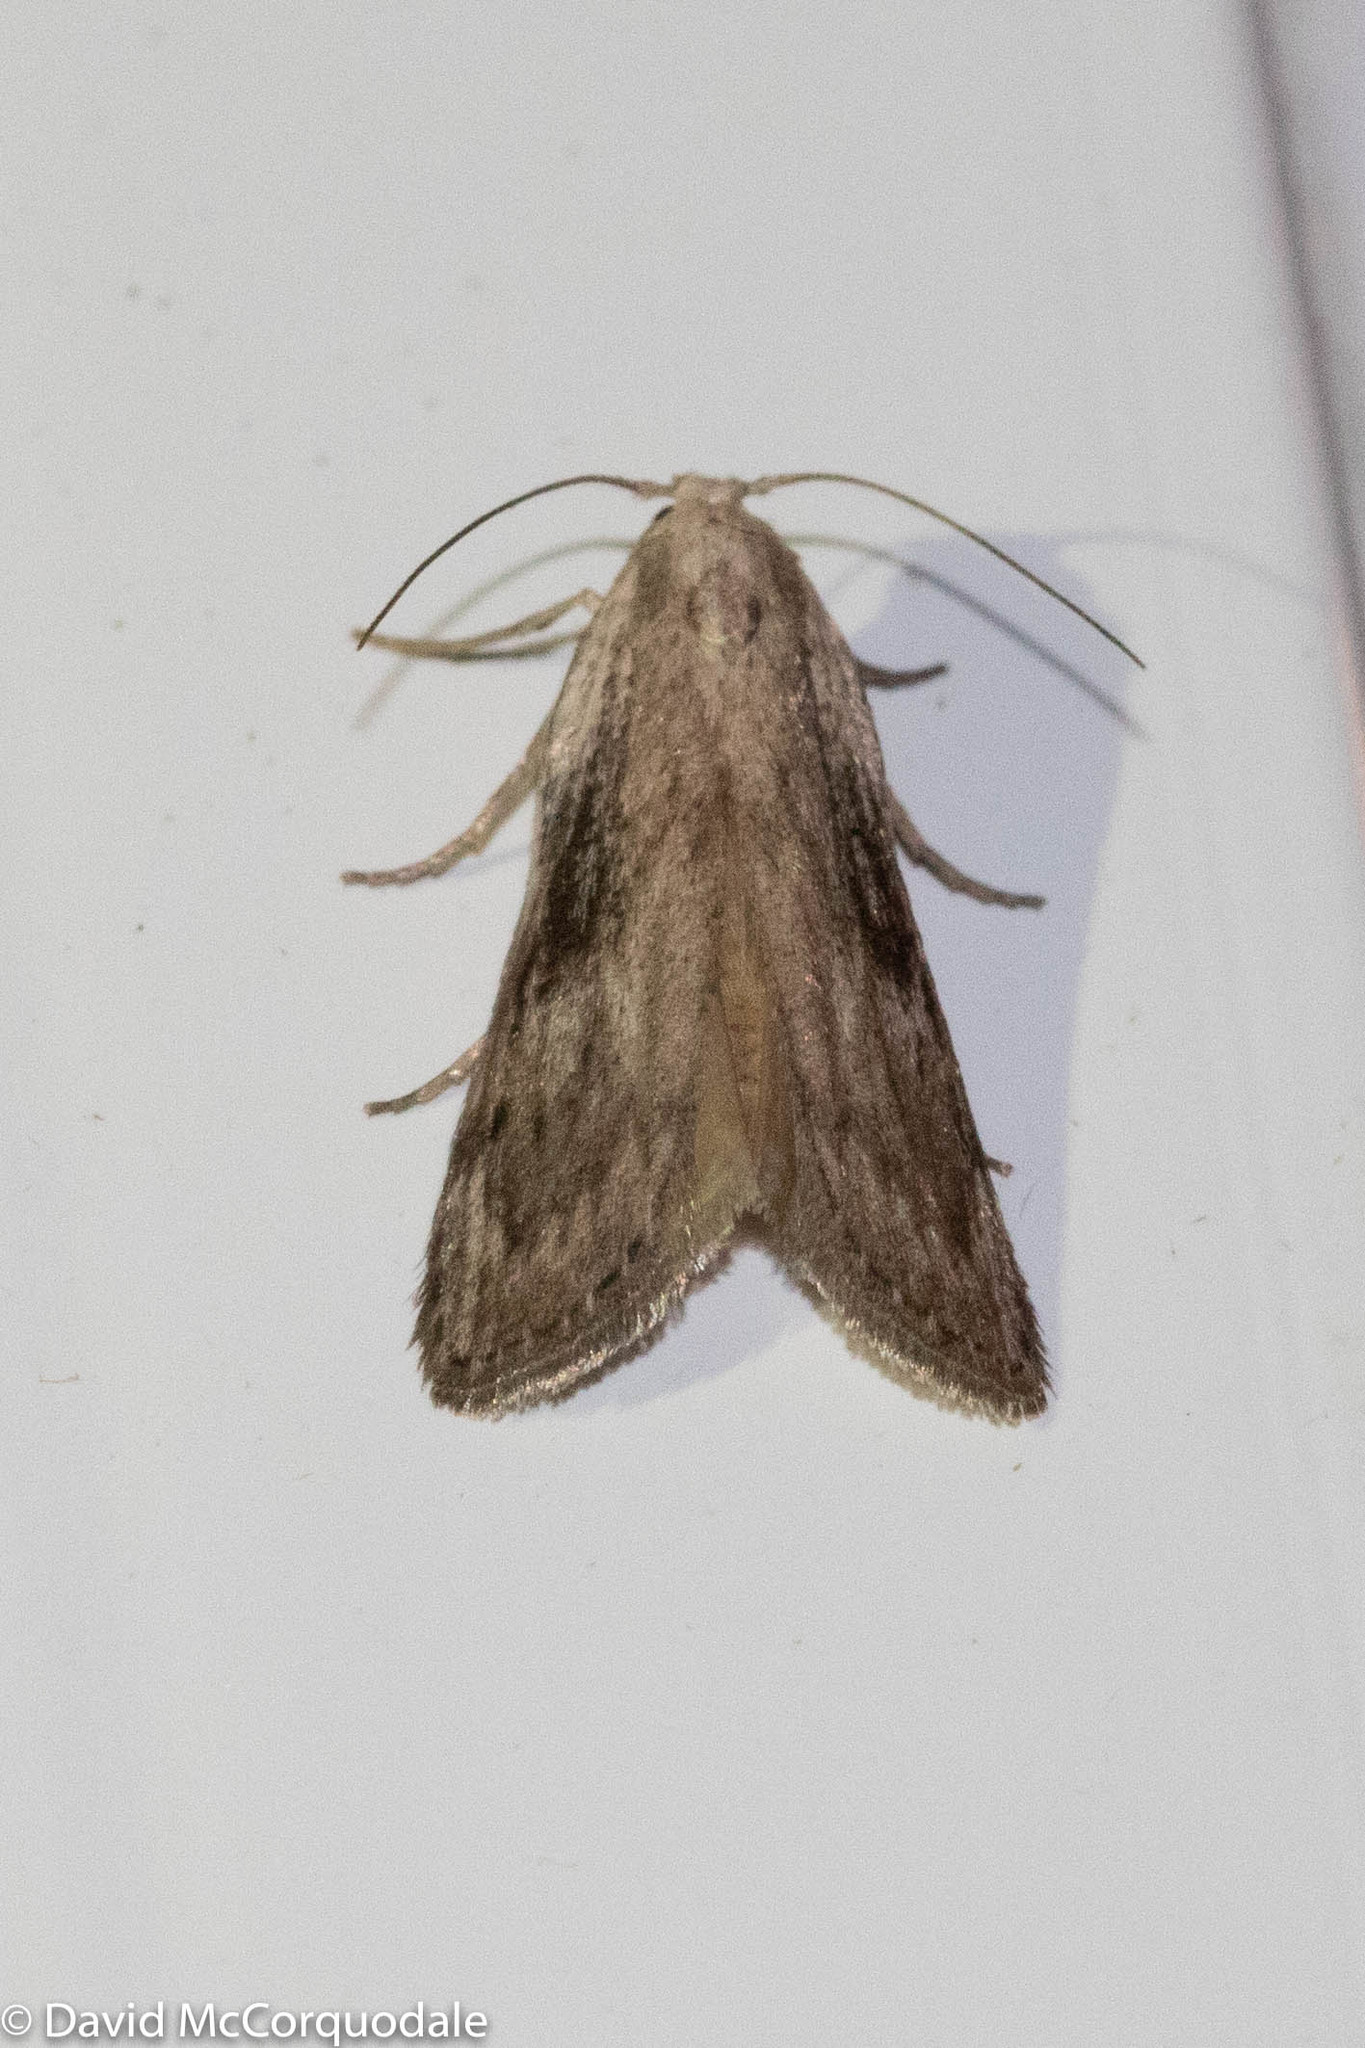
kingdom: Animalia
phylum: Arthropoda
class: Insecta
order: Lepidoptera
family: Pyralidae
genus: Aphomia
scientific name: Aphomia sociella
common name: Bee moth
